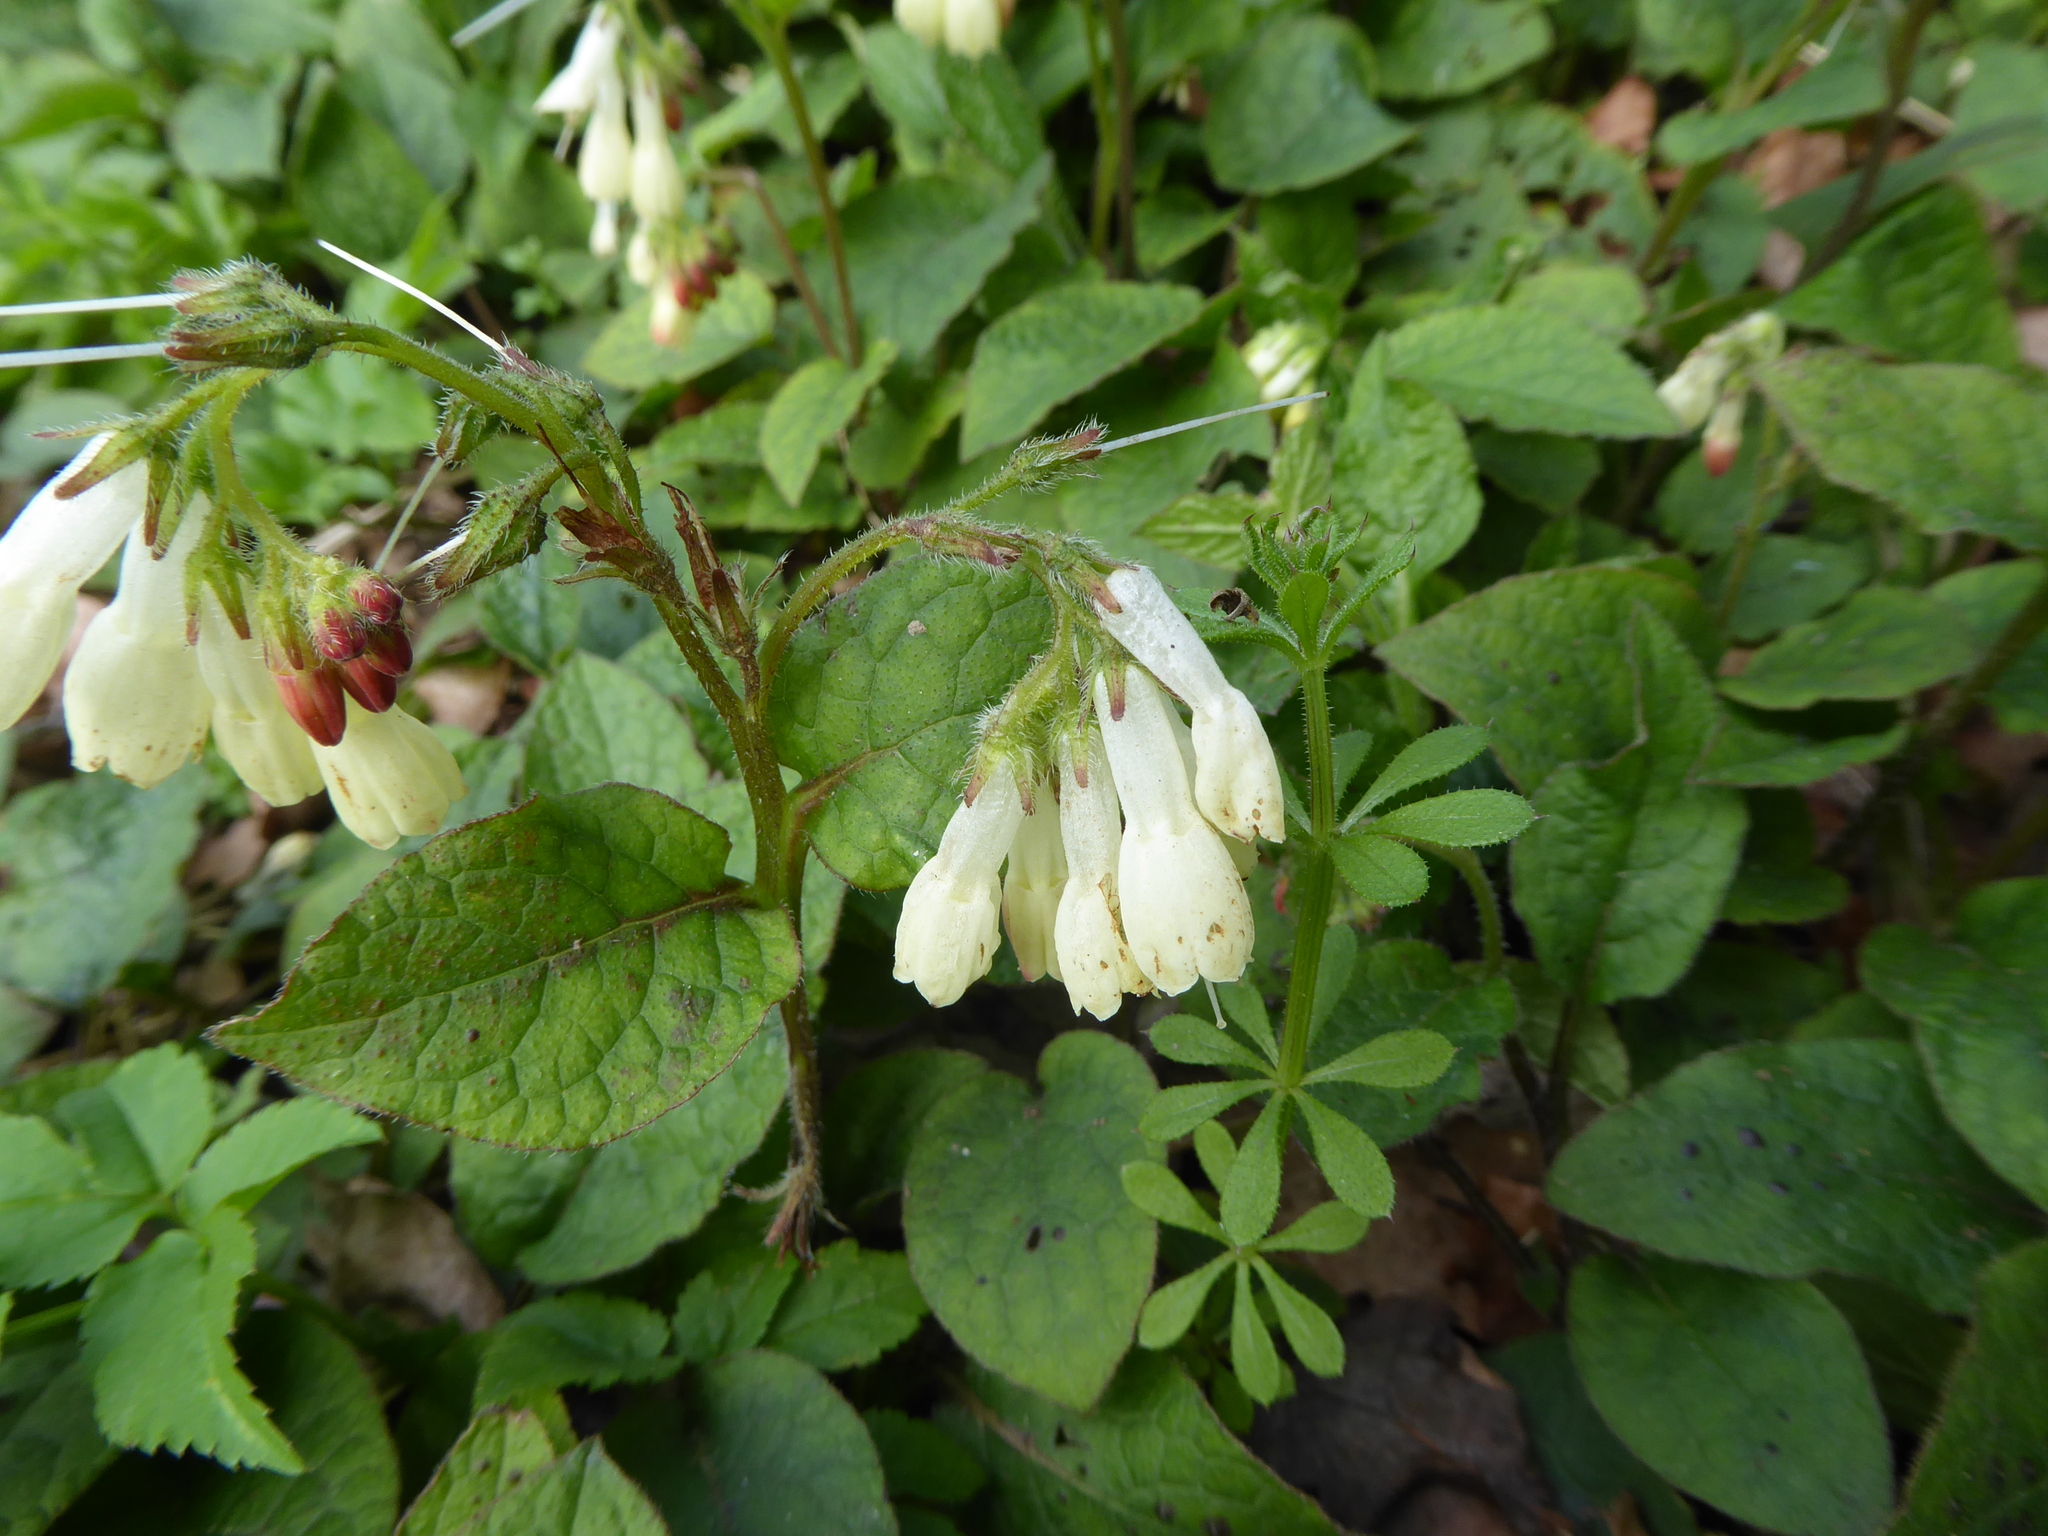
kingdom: Plantae
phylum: Tracheophyta
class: Magnoliopsida
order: Boraginales
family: Boraginaceae
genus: Symphytum
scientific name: Symphytum grandiflorum
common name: Creeping comfrey
